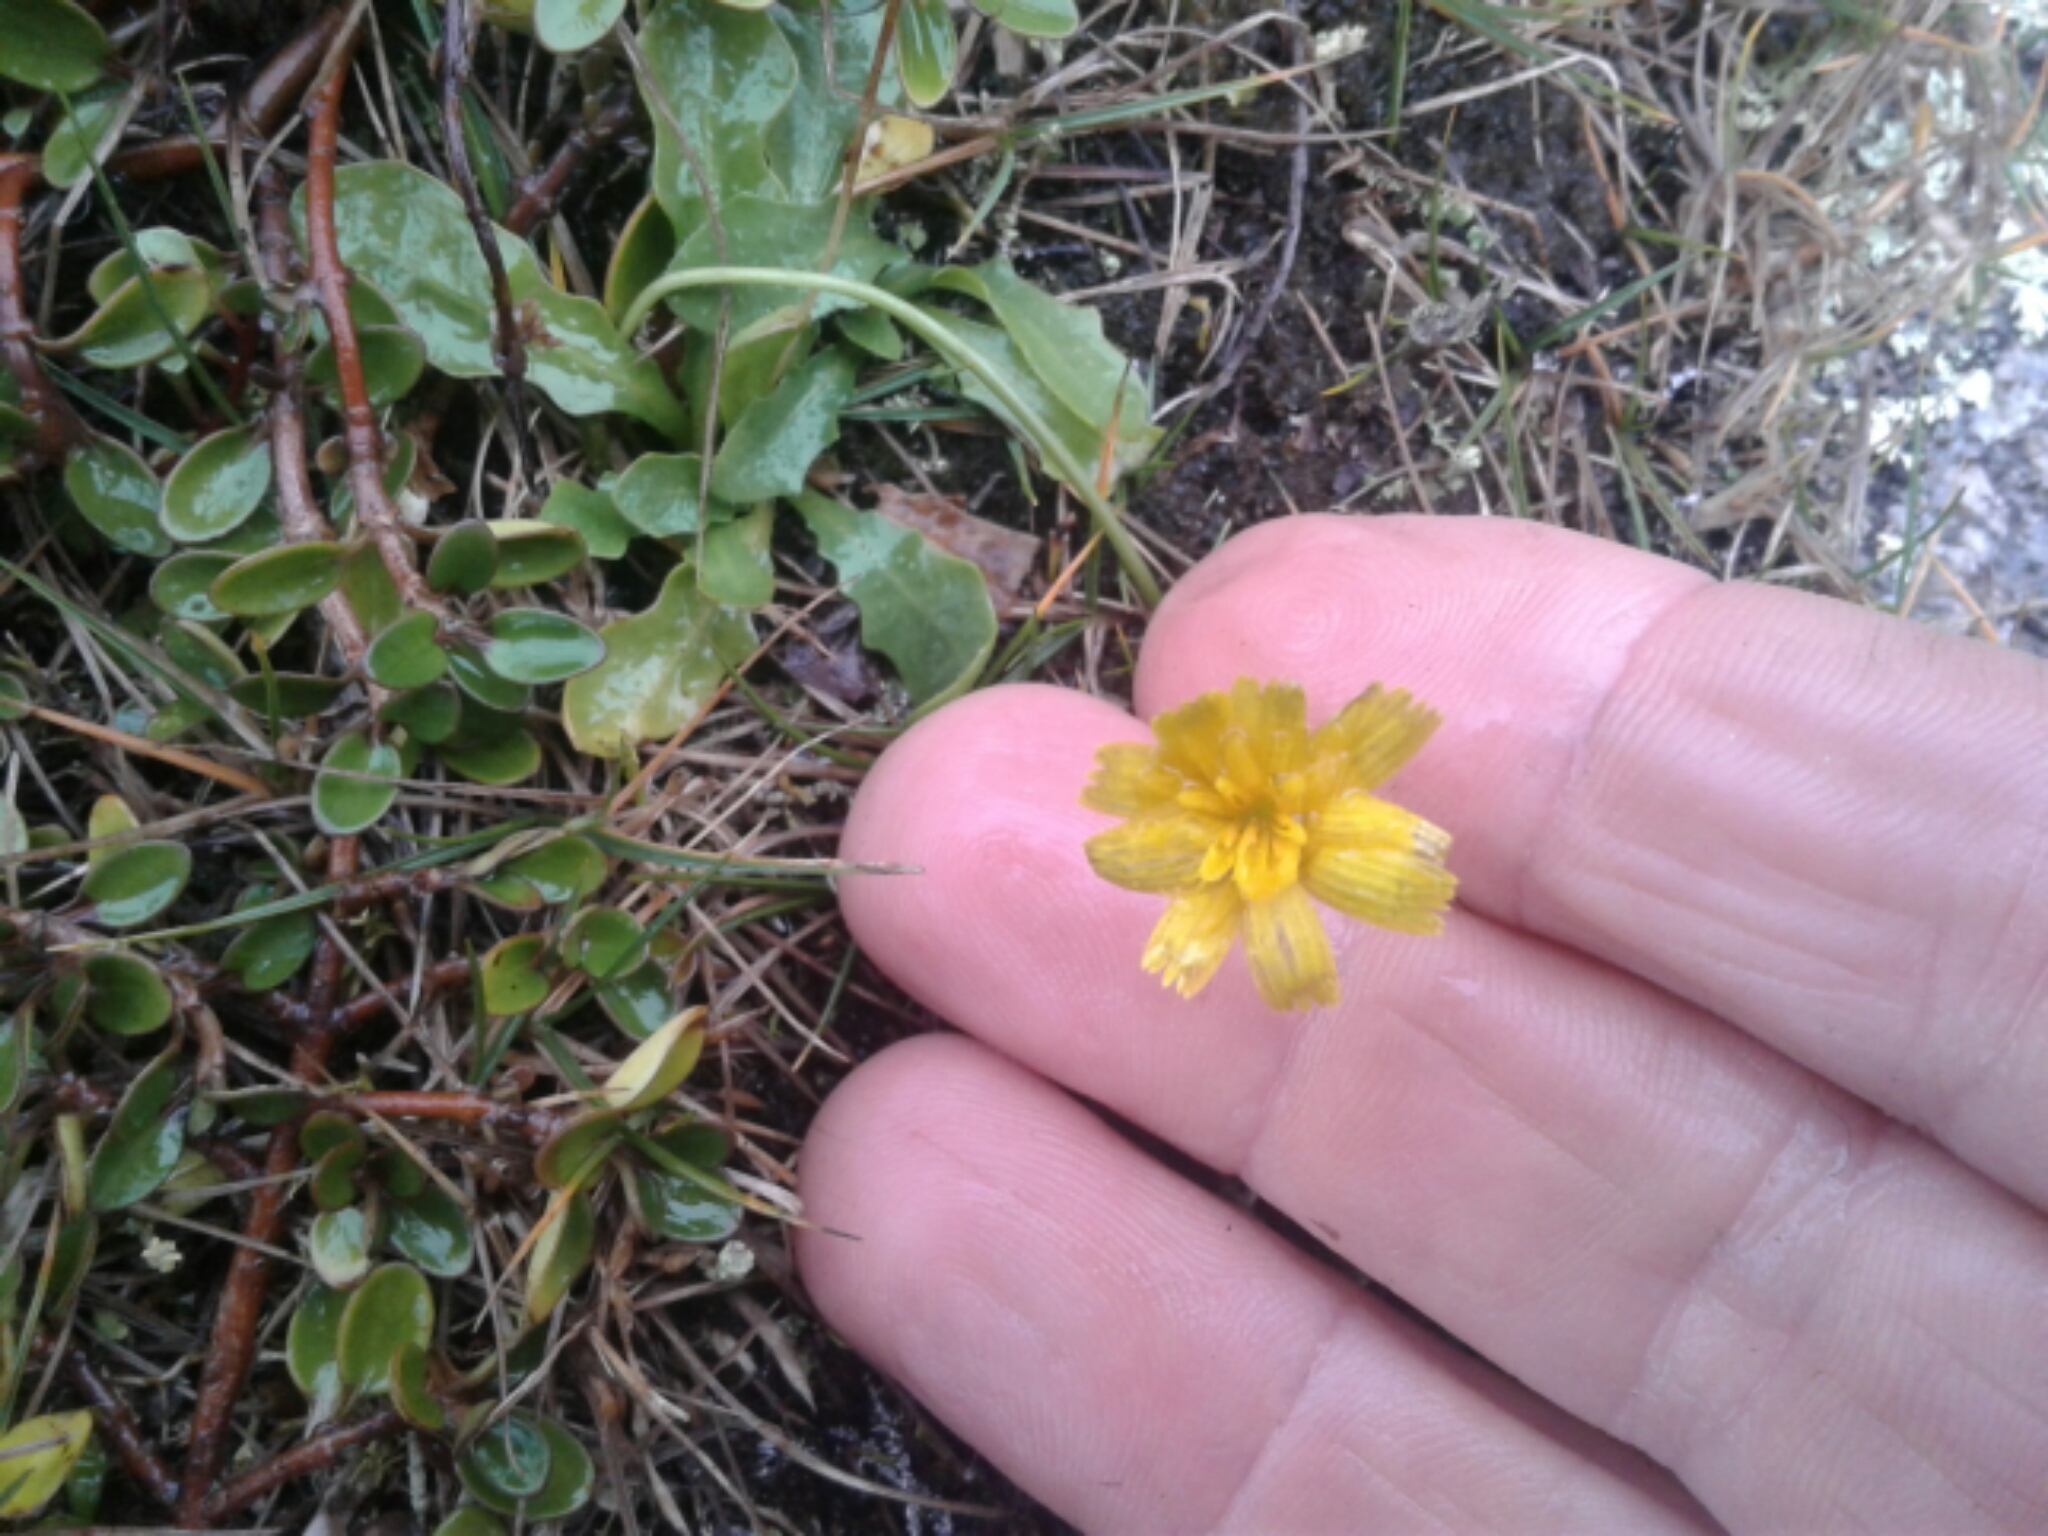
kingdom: Plantae
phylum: Tracheophyta
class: Magnoliopsida
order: Asterales
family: Asteraceae
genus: Hypochaeris
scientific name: Hypochaeris radicata
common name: Flatweed
